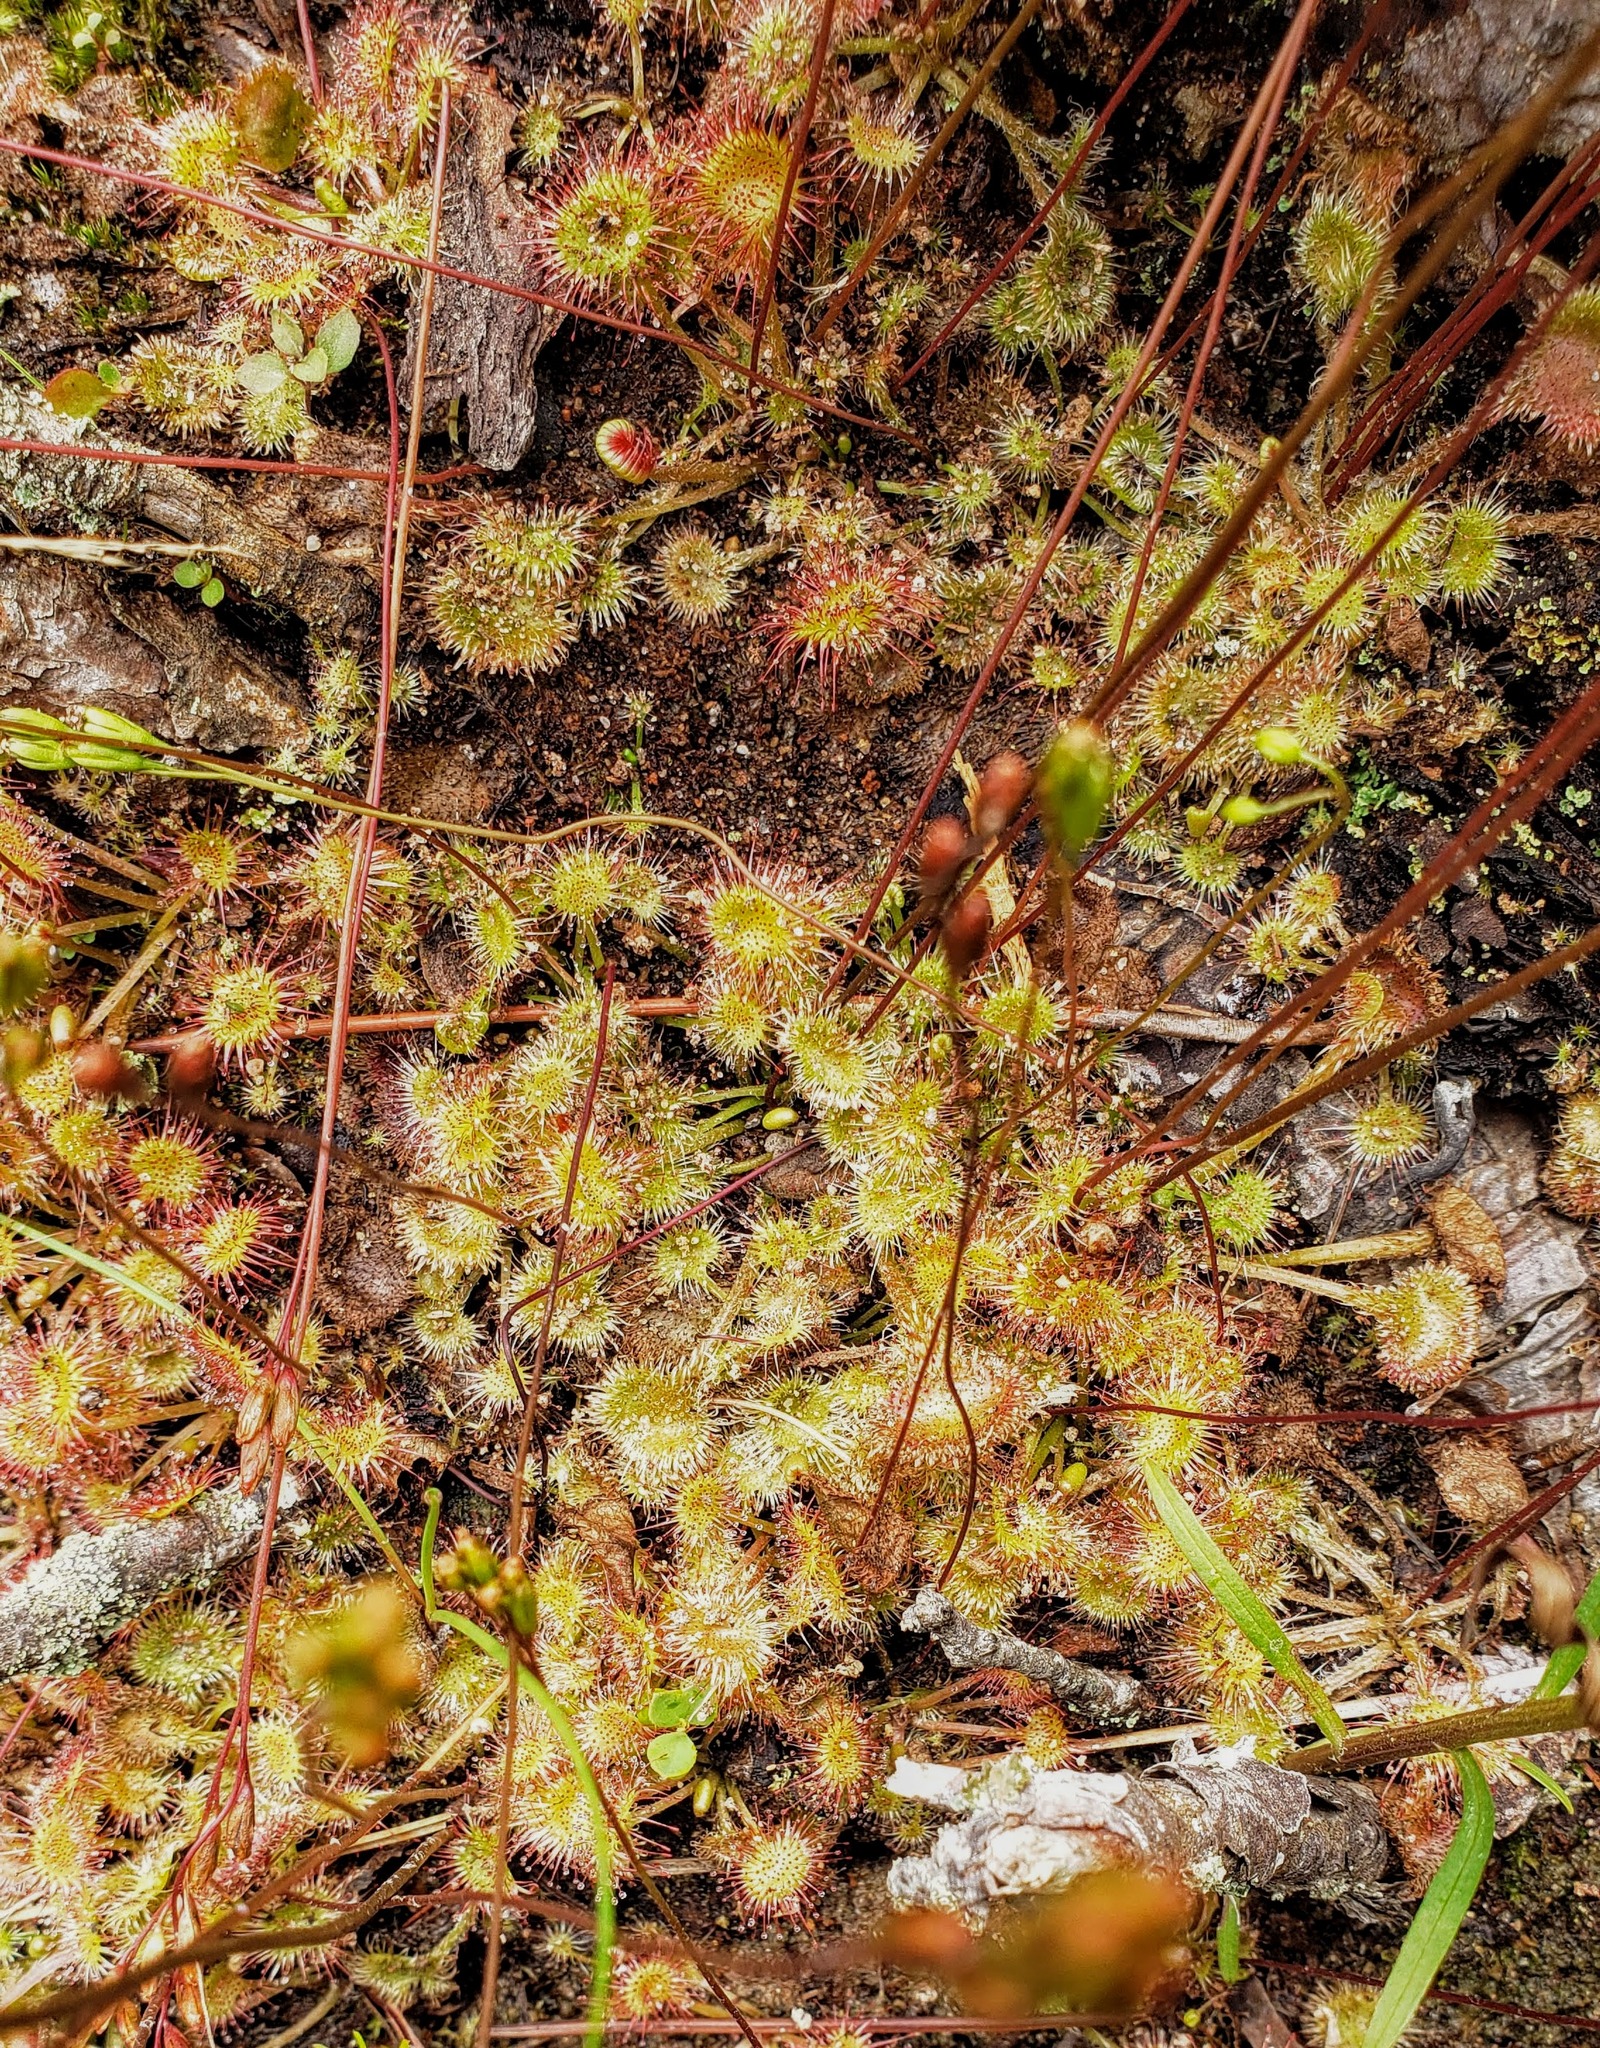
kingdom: Plantae
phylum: Tracheophyta
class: Magnoliopsida
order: Caryophyllales
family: Droseraceae
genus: Drosera
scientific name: Drosera rotundifolia
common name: Round-leaved sundew
